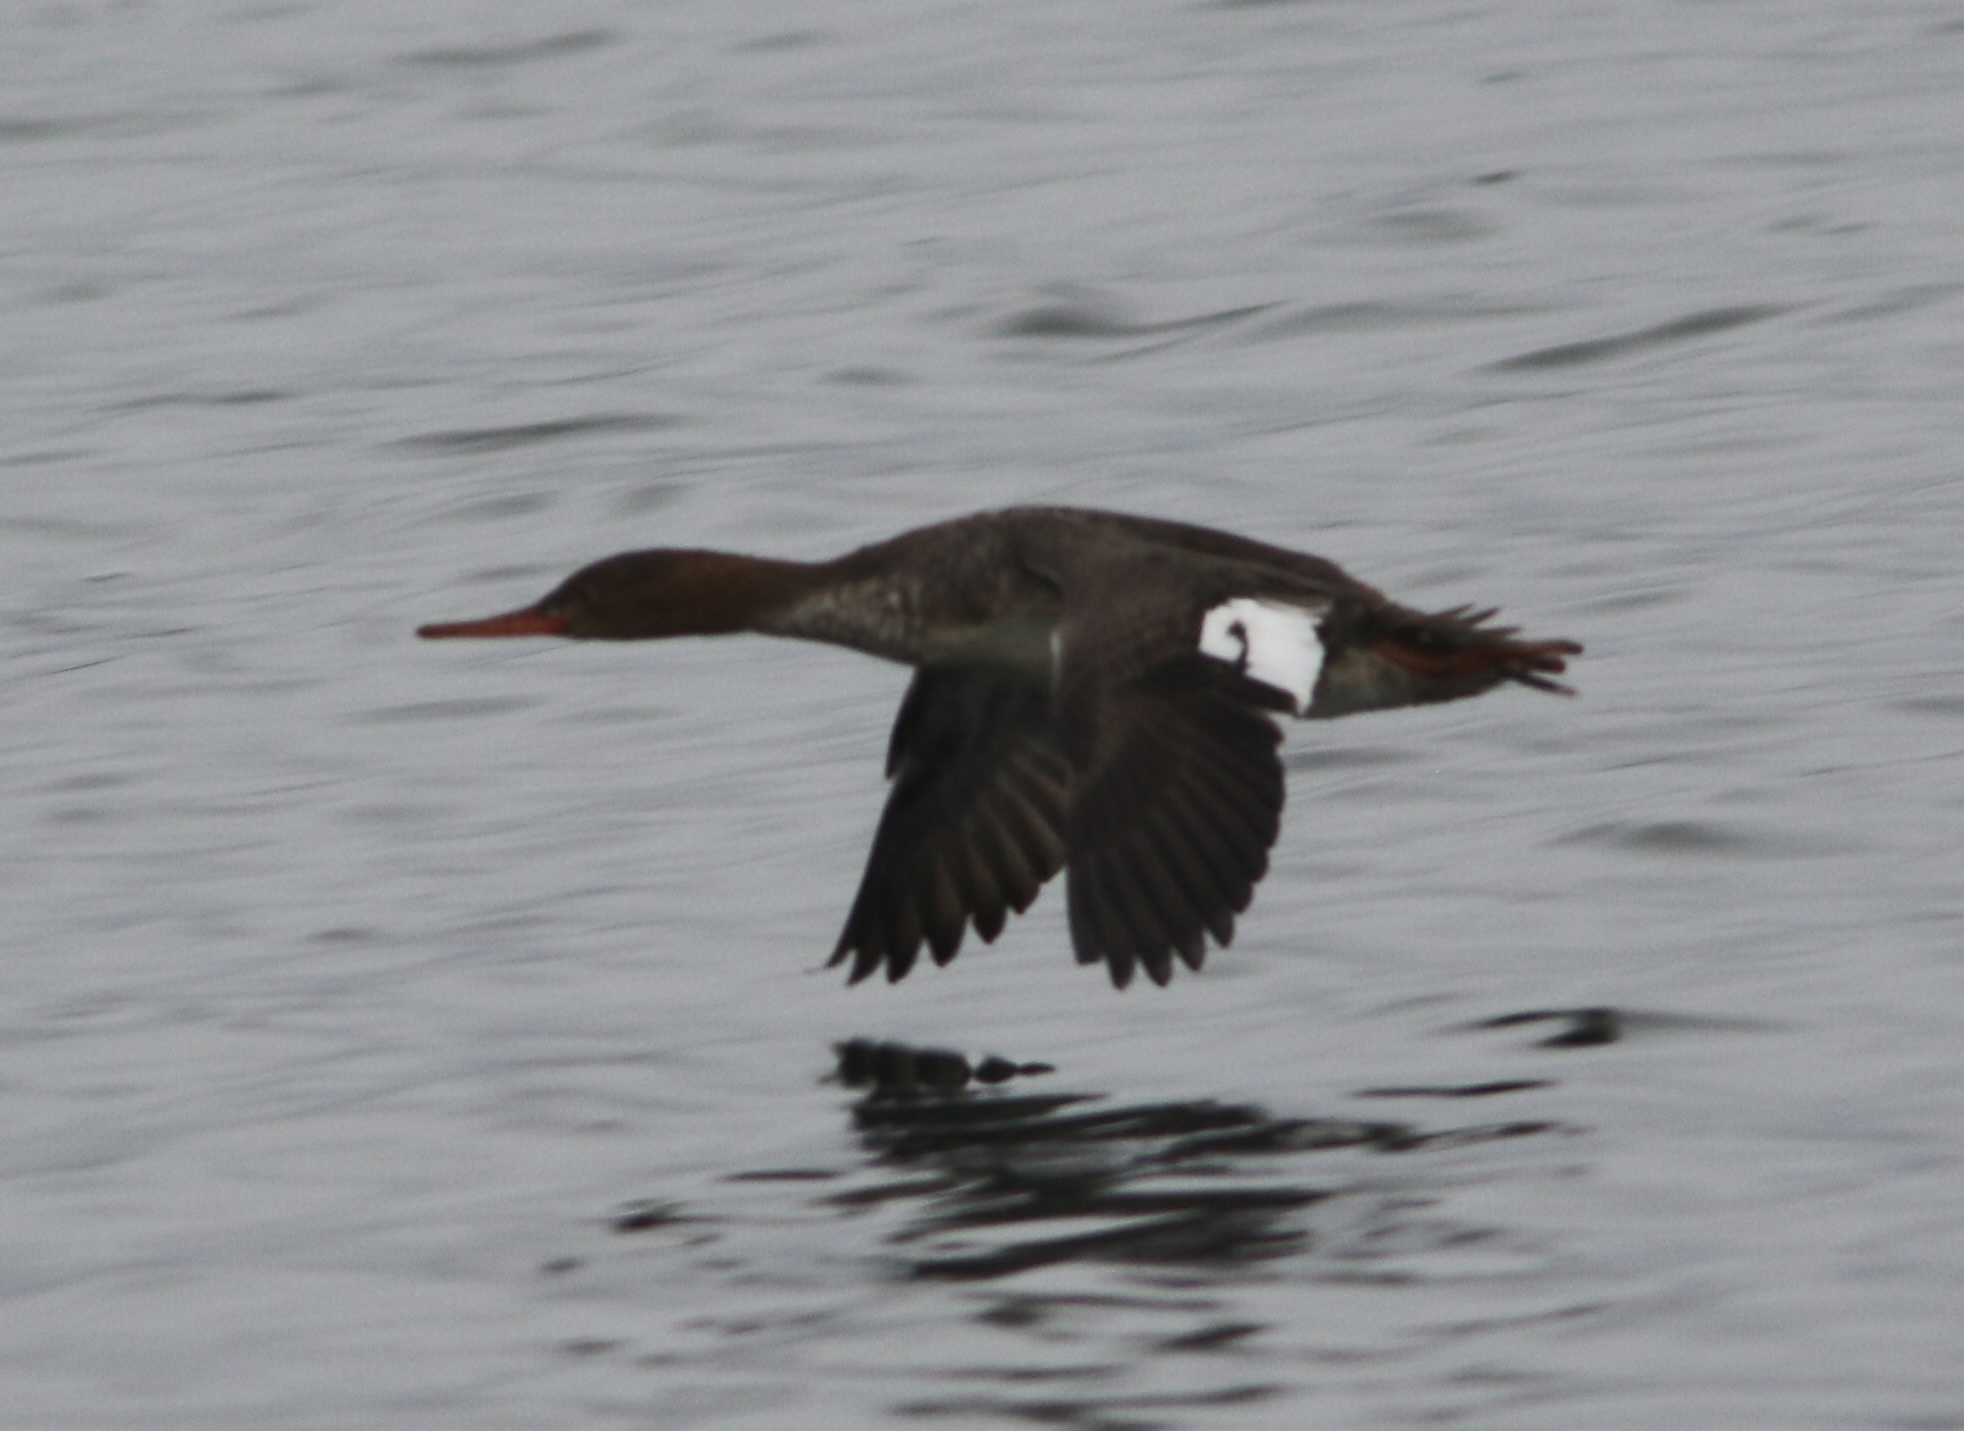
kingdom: Animalia
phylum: Chordata
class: Aves
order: Anseriformes
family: Anatidae
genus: Mergus
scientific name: Mergus serrator
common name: Red-breasted merganser
